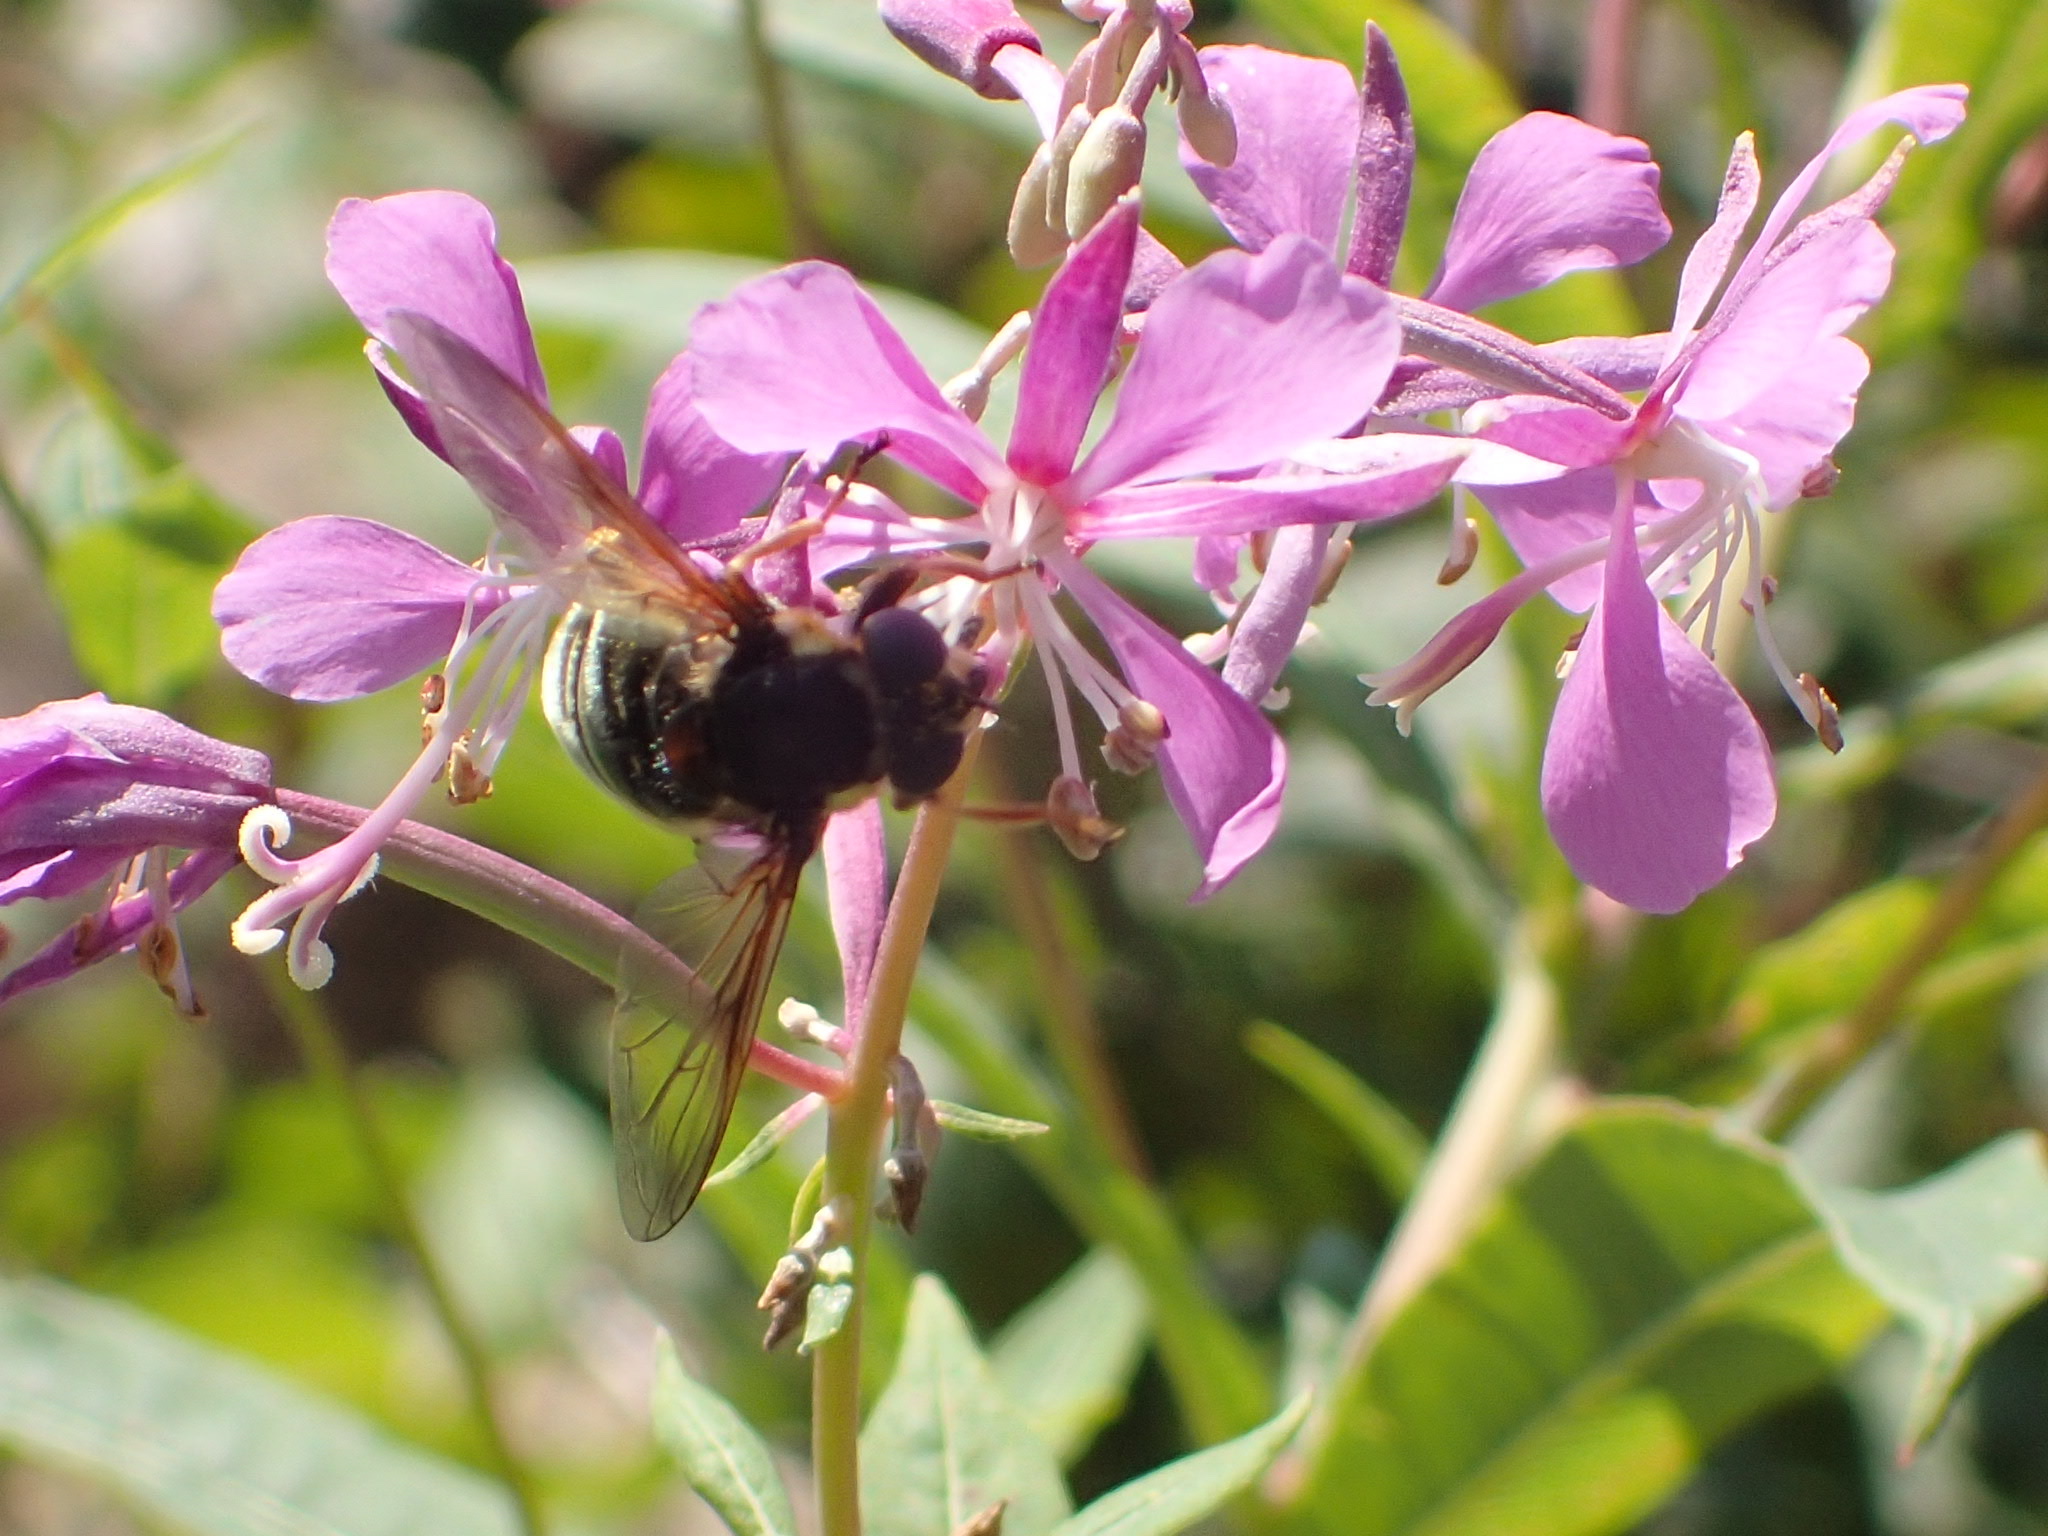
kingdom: Animalia
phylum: Arthropoda
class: Insecta
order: Diptera
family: Syrphidae
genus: Sericomyia
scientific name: Sericomyia militaris
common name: Narrow-banded pond fly
